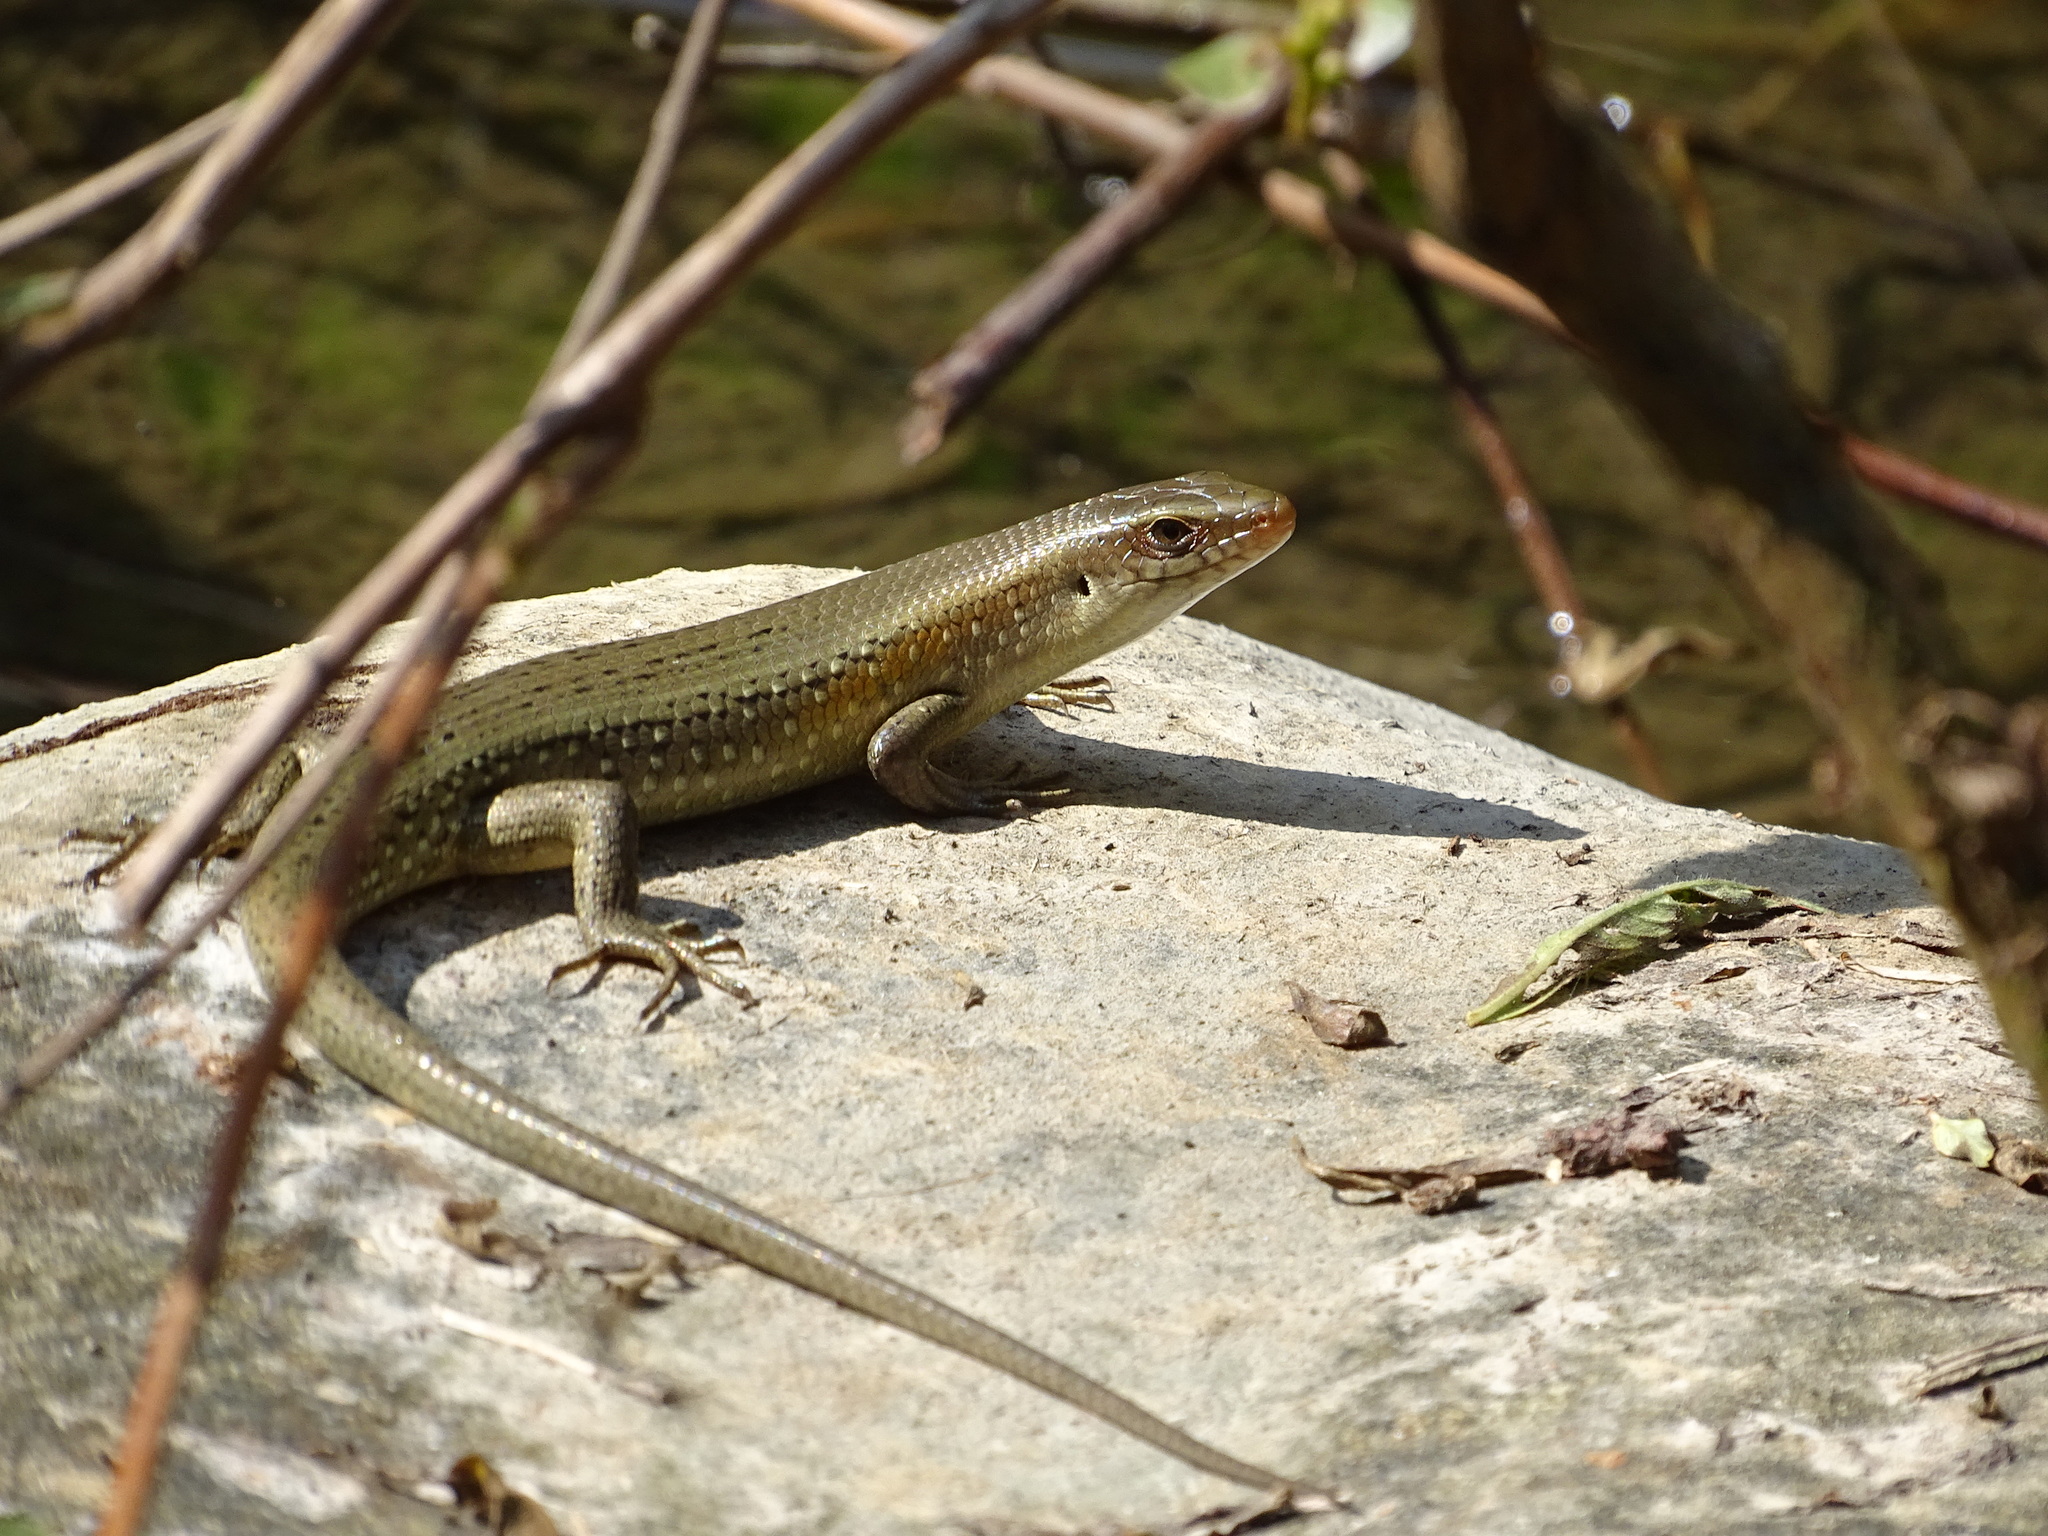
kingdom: Animalia
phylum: Chordata
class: Squamata
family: Scincidae
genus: Eutropis
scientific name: Eutropis multifasciata
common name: Common mabuya
